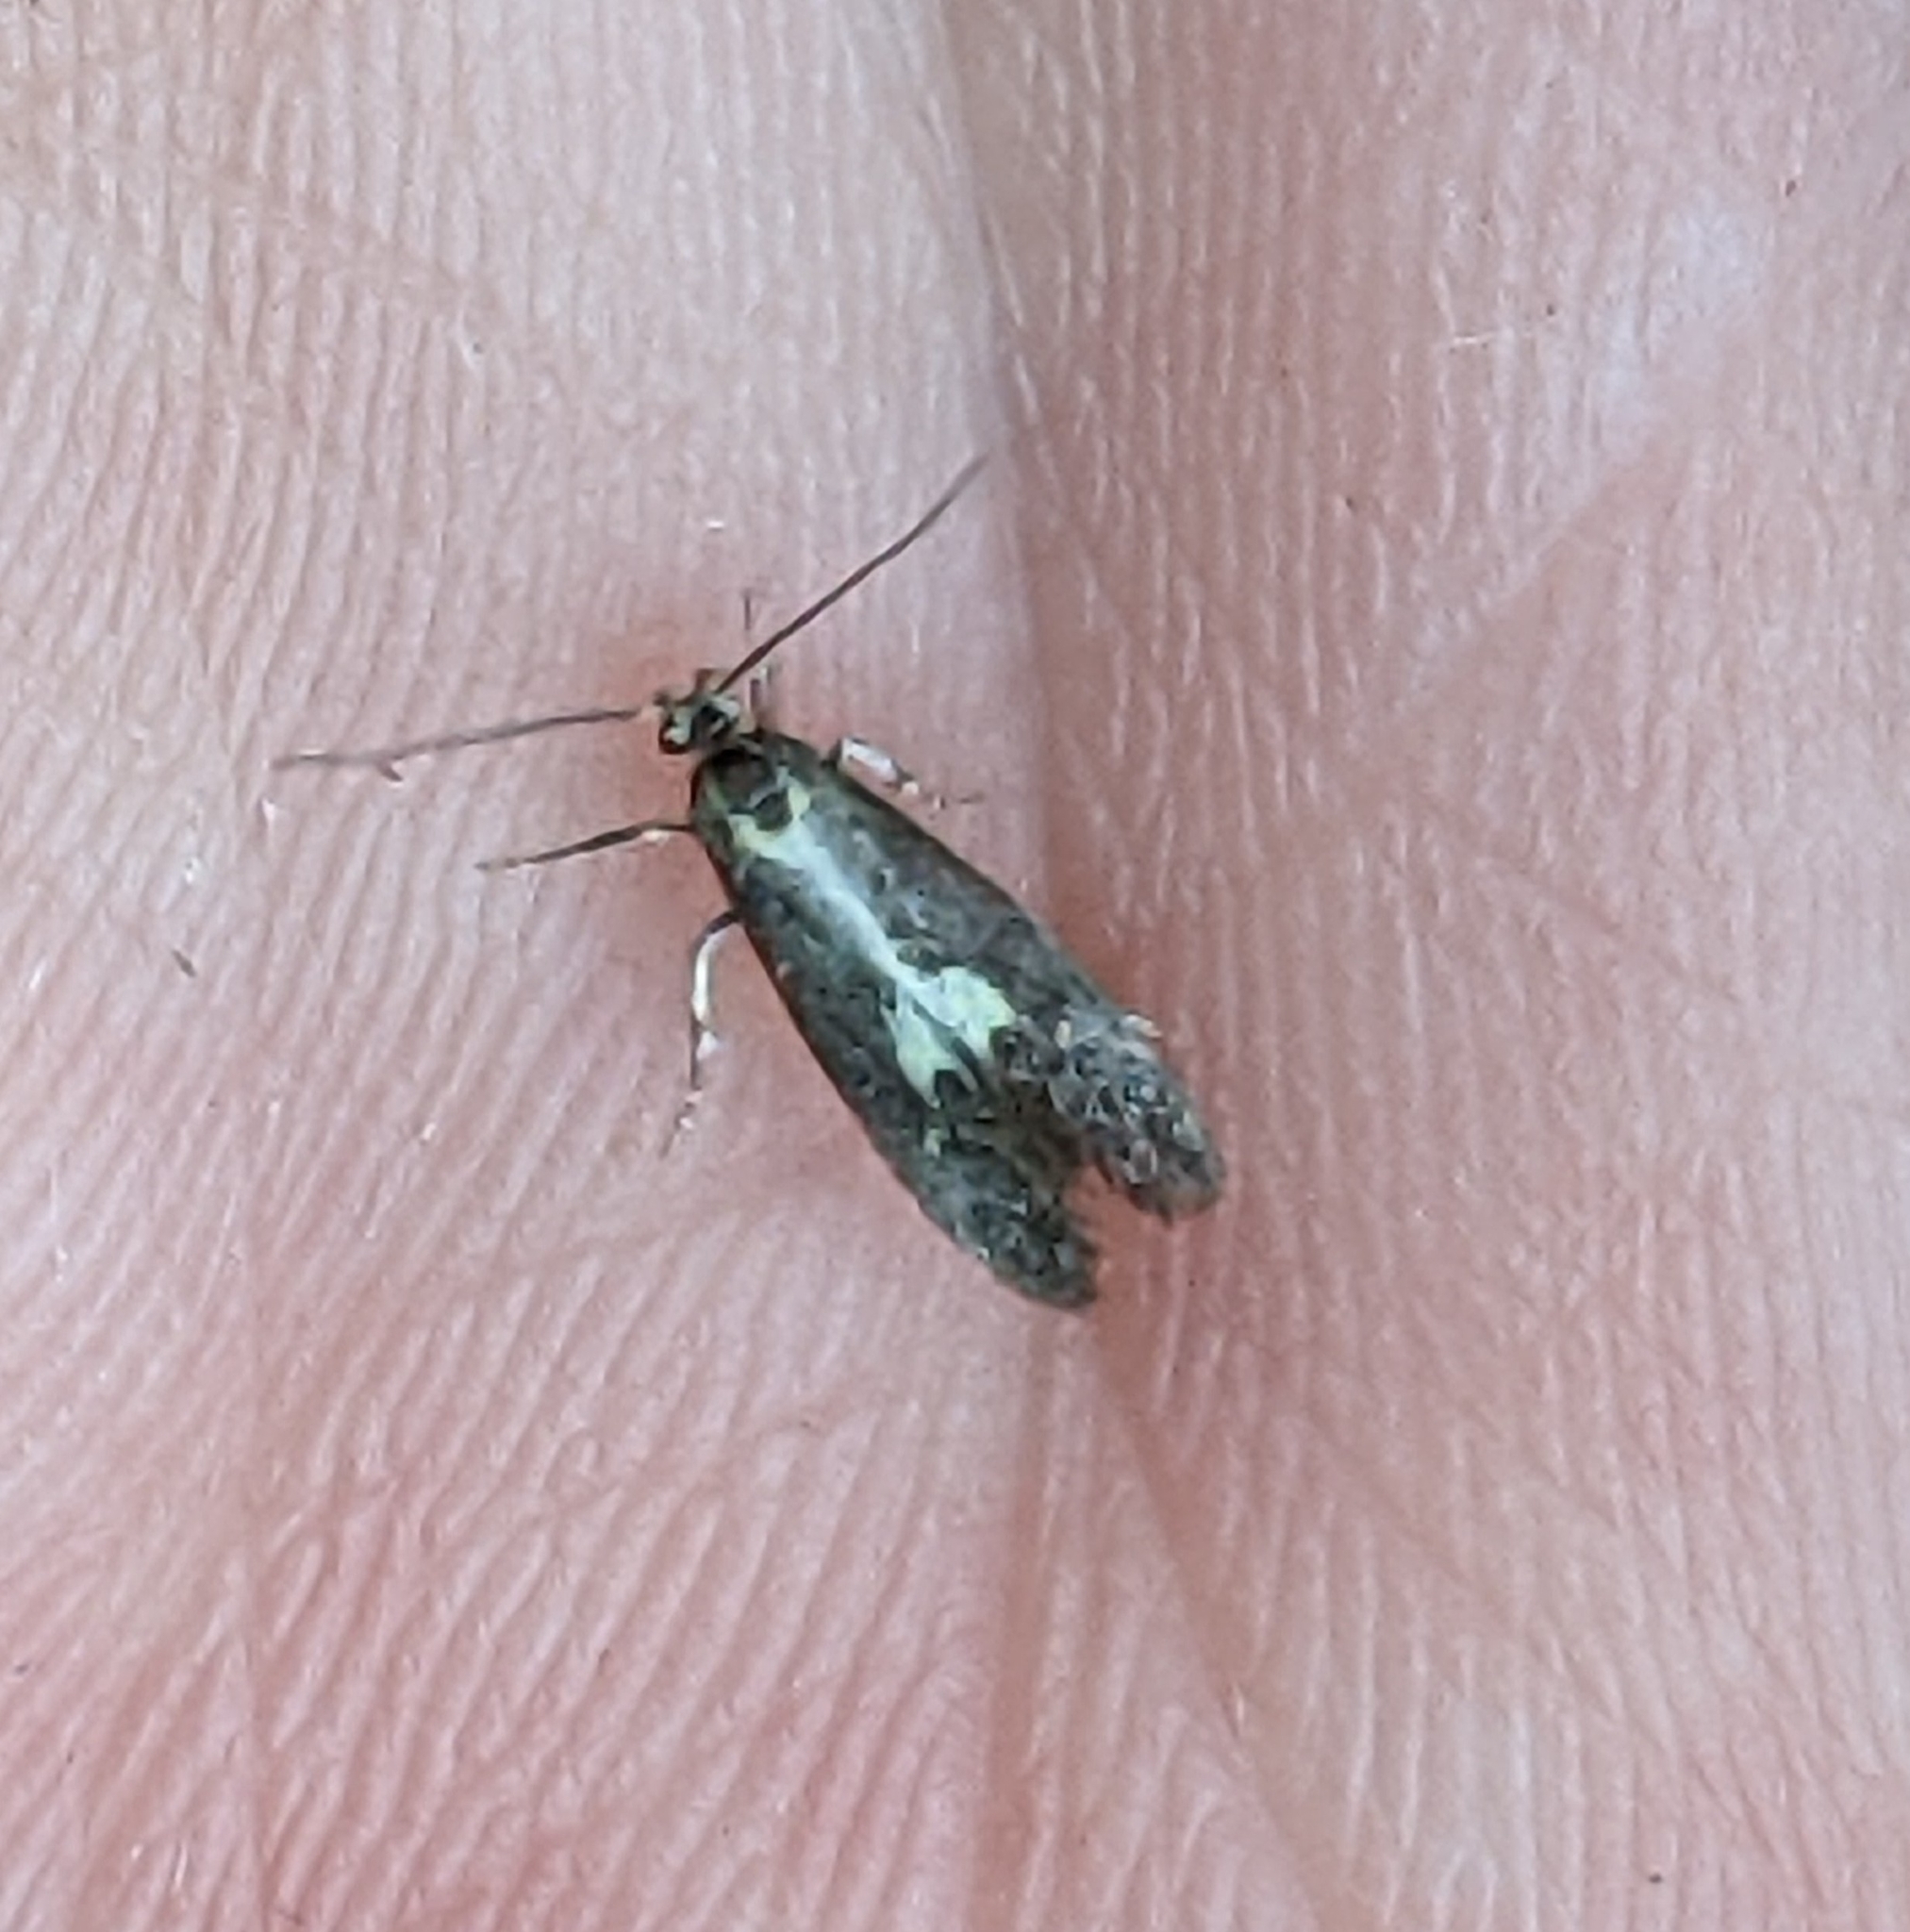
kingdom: Animalia
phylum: Arthropoda
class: Insecta
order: Lepidoptera
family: Oecophoridae
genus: Polix
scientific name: Polix coloradella
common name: Skunk moth
